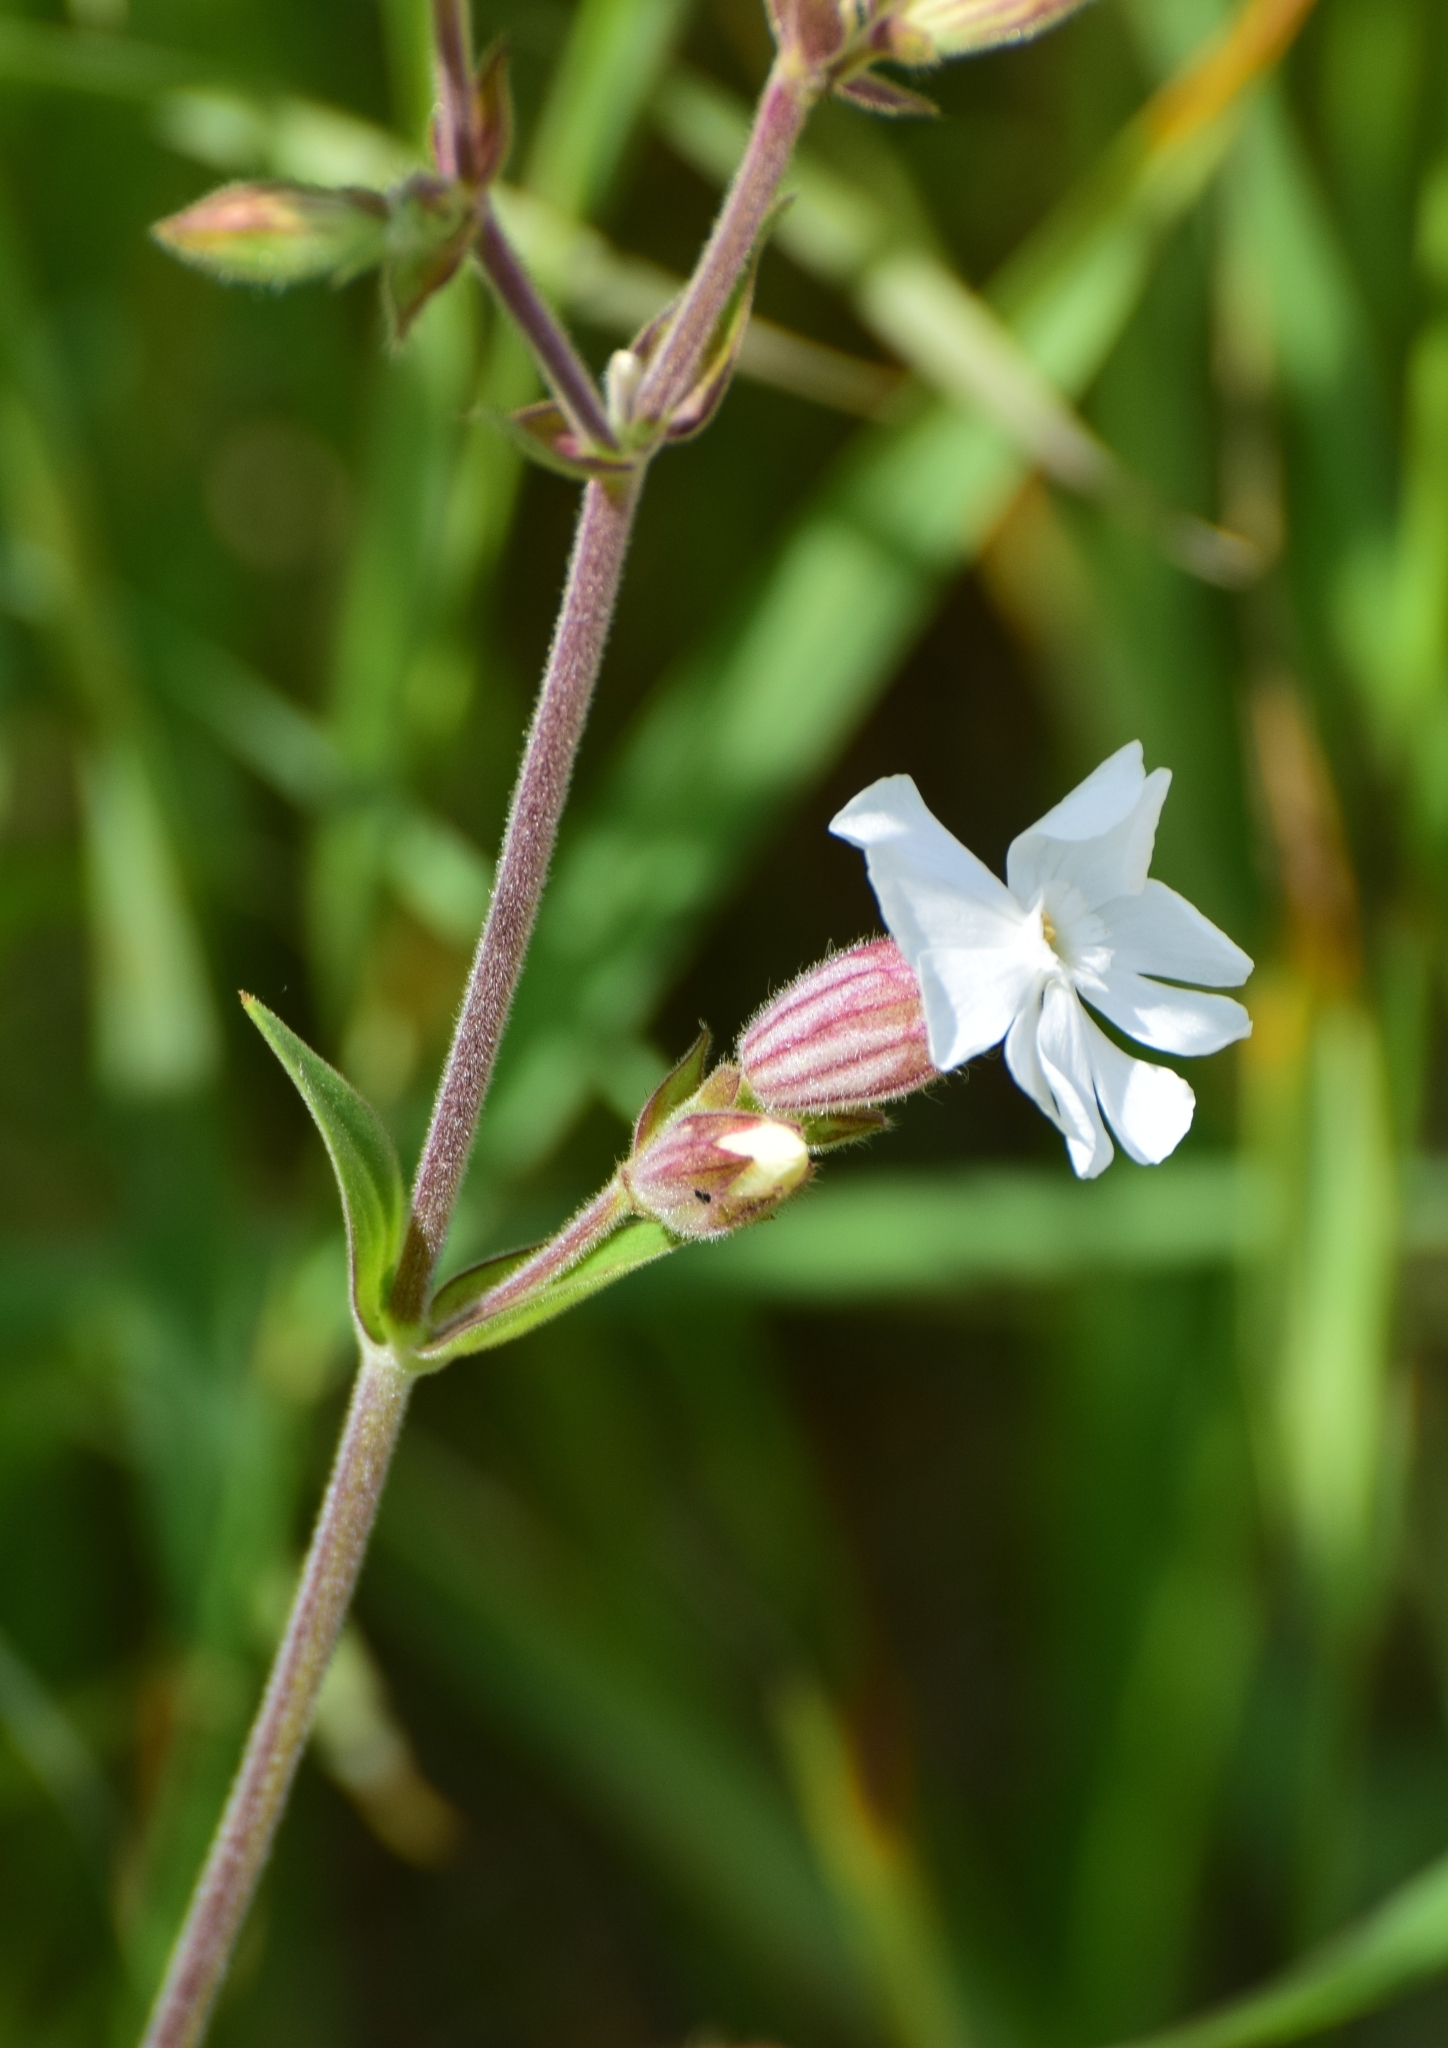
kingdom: Plantae
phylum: Tracheophyta
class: Magnoliopsida
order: Caryophyllales
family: Caryophyllaceae
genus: Silene
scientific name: Silene latifolia
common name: White campion
